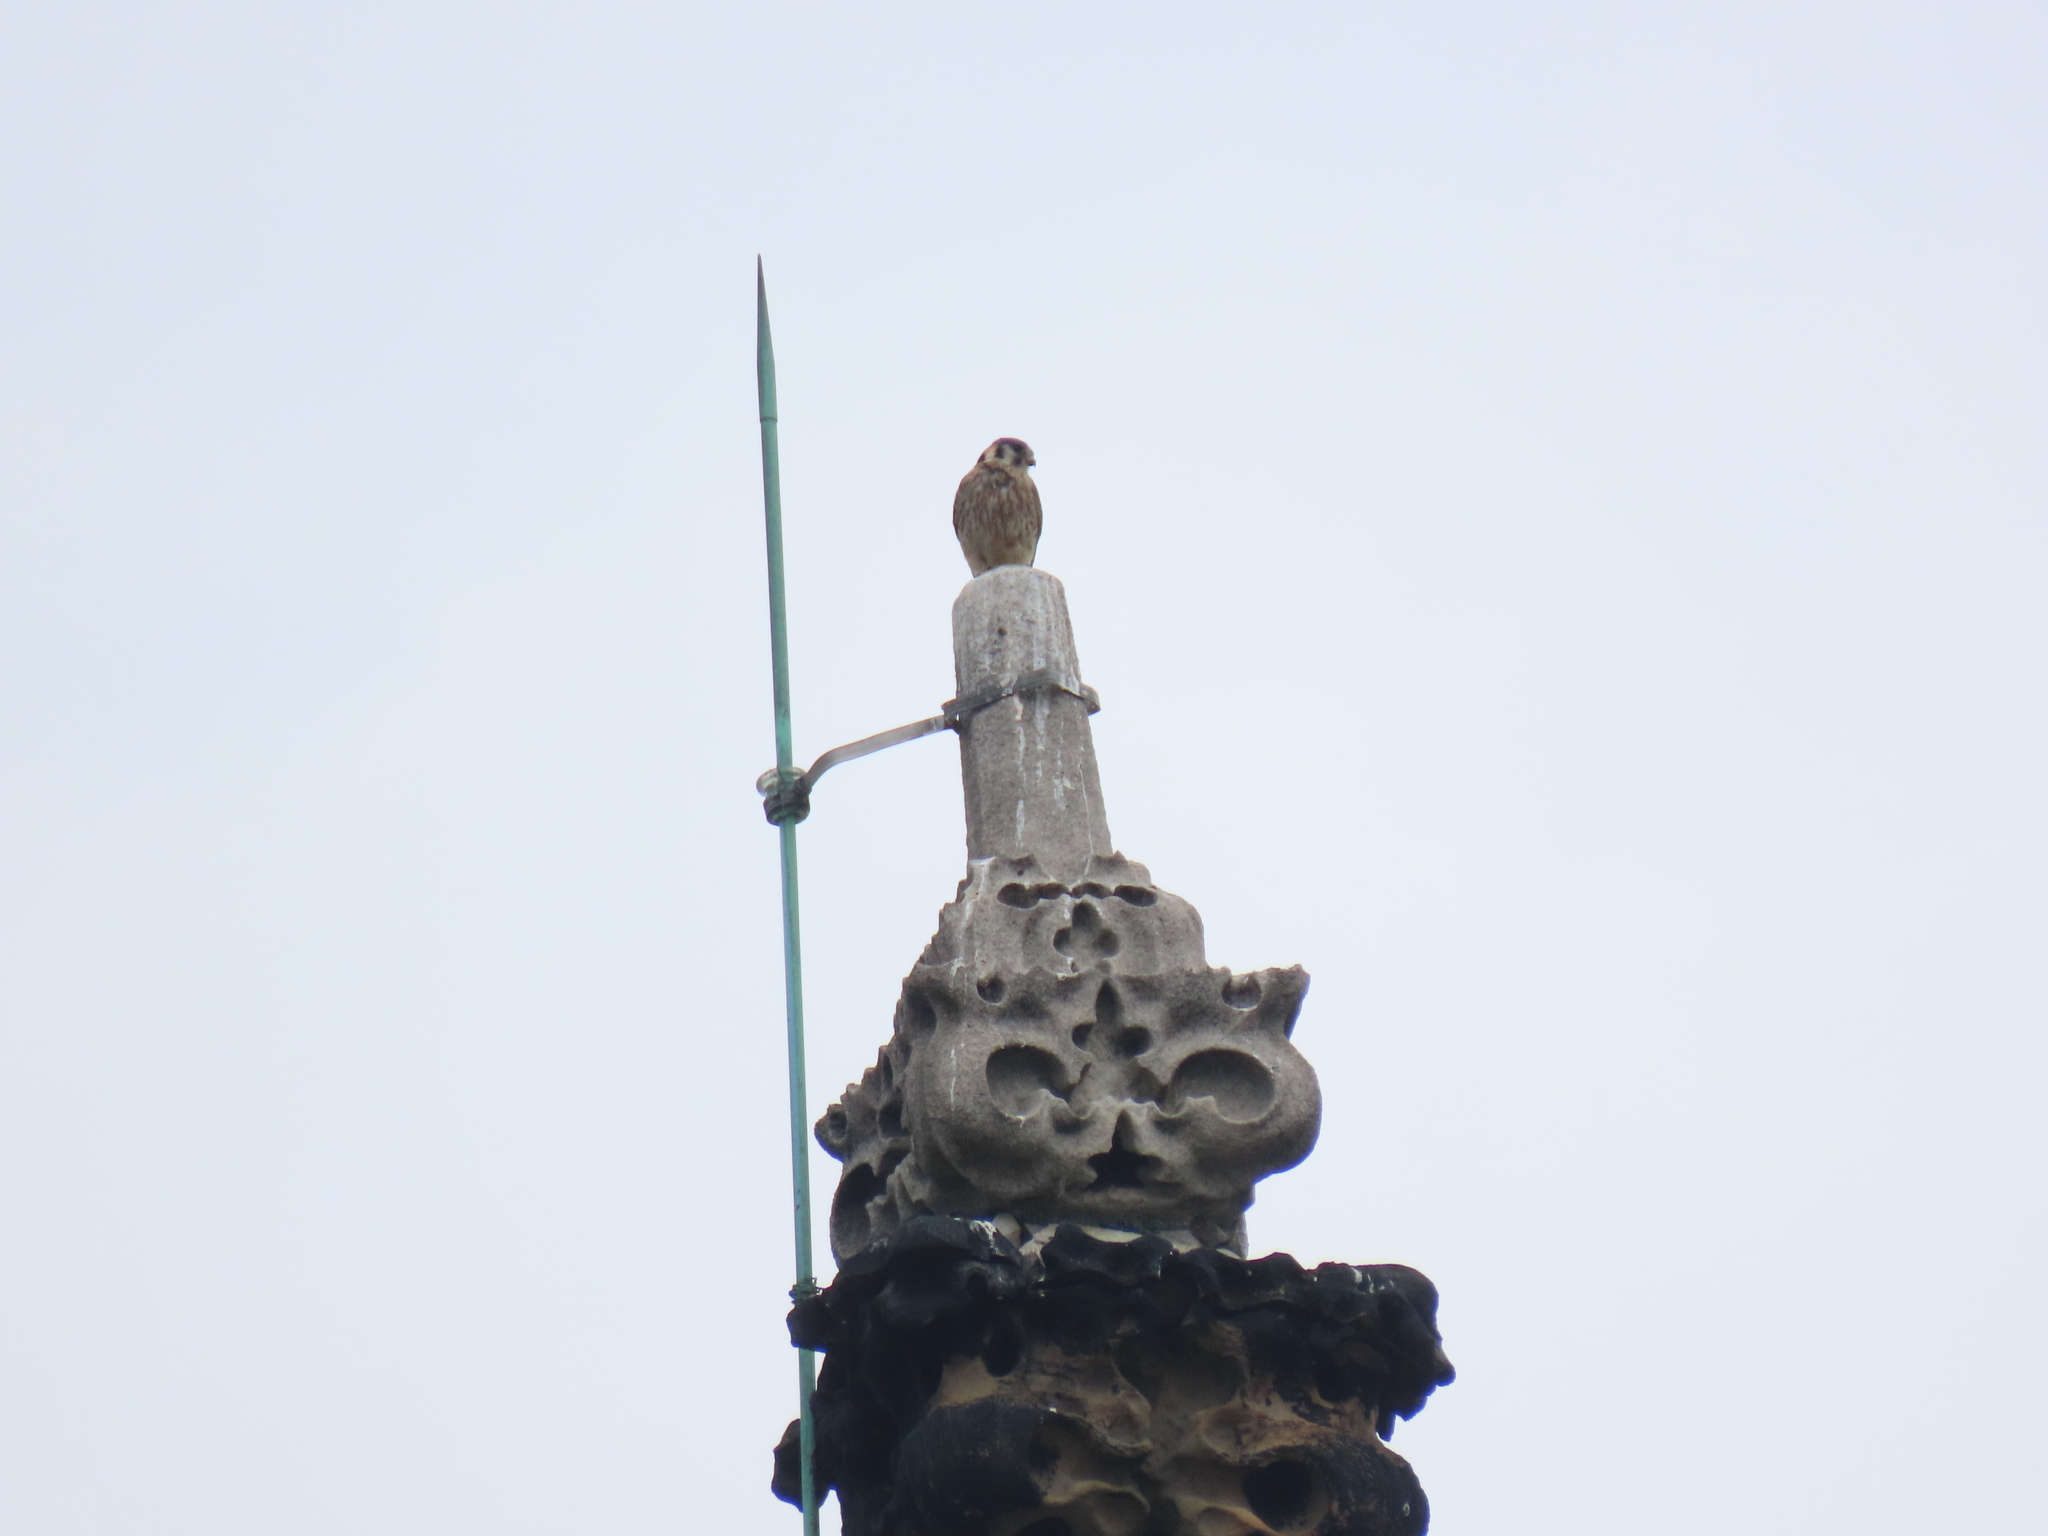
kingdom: Animalia
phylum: Chordata
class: Aves
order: Falconiformes
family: Falconidae
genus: Falco
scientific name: Falco sparverius
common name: American kestrel
